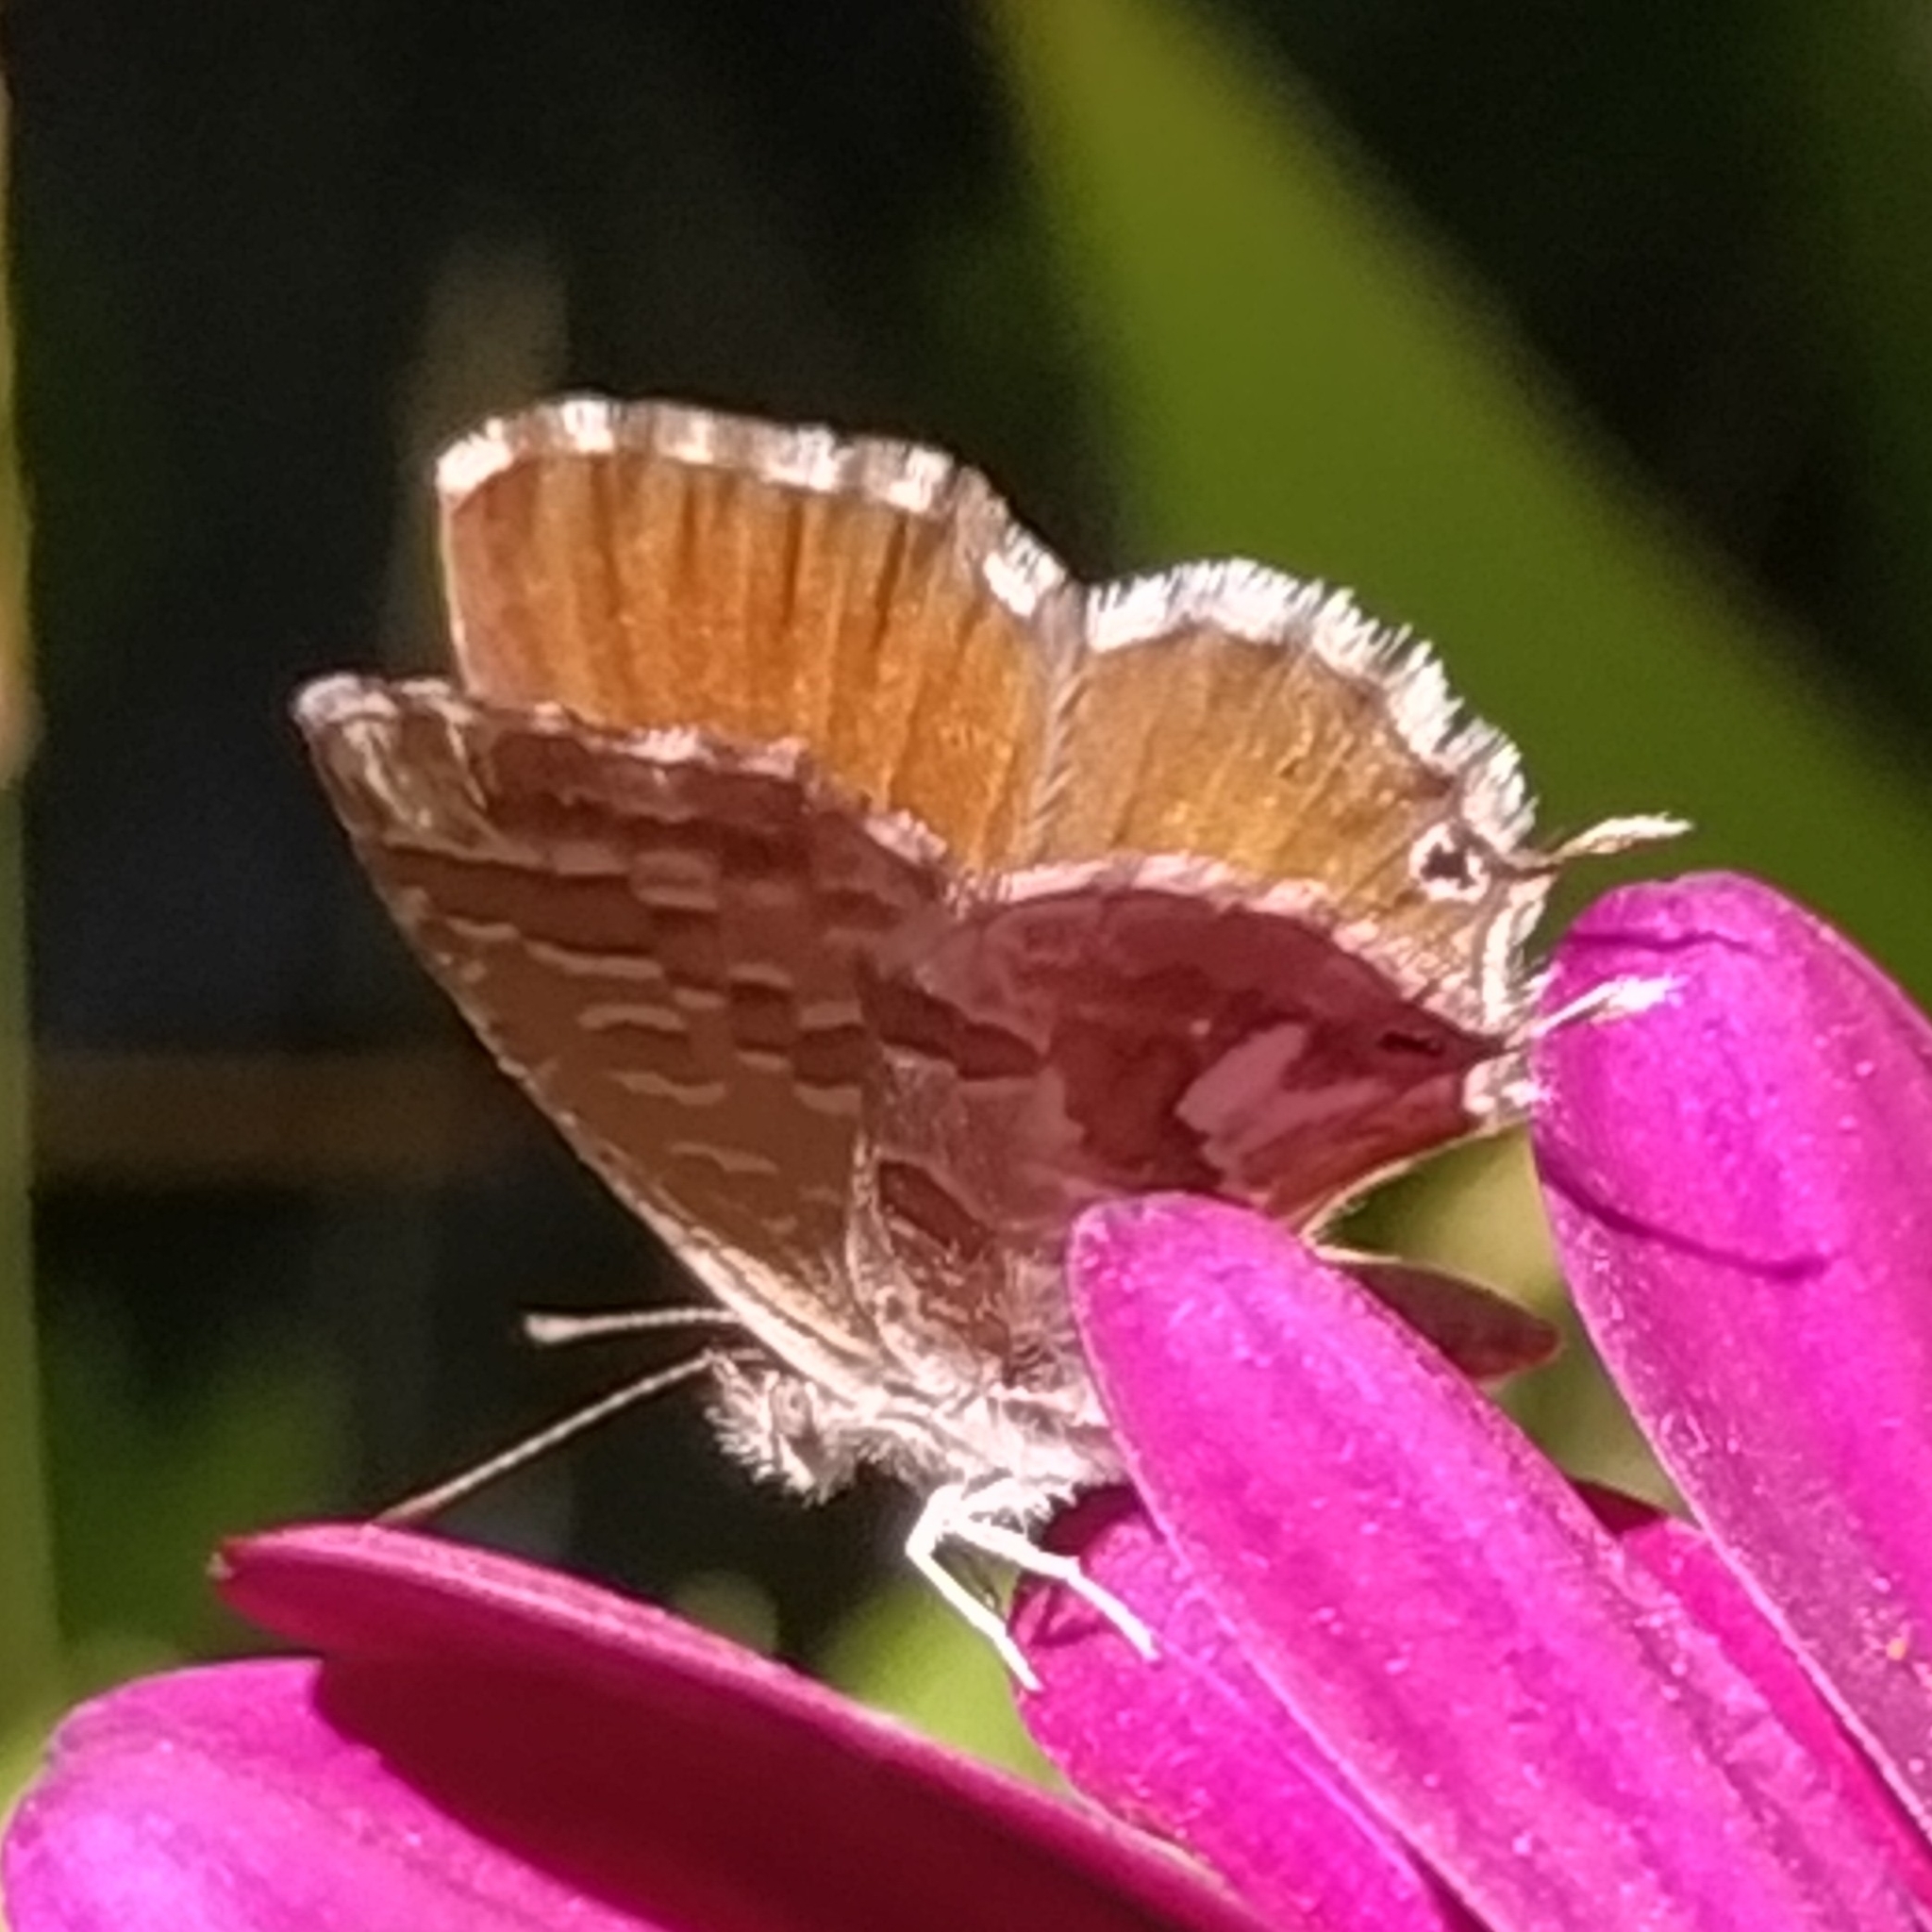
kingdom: Animalia
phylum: Arthropoda
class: Insecta
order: Lepidoptera
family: Lycaenidae
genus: Cacyreus
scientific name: Cacyreus marshalli
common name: Geranium bronze
